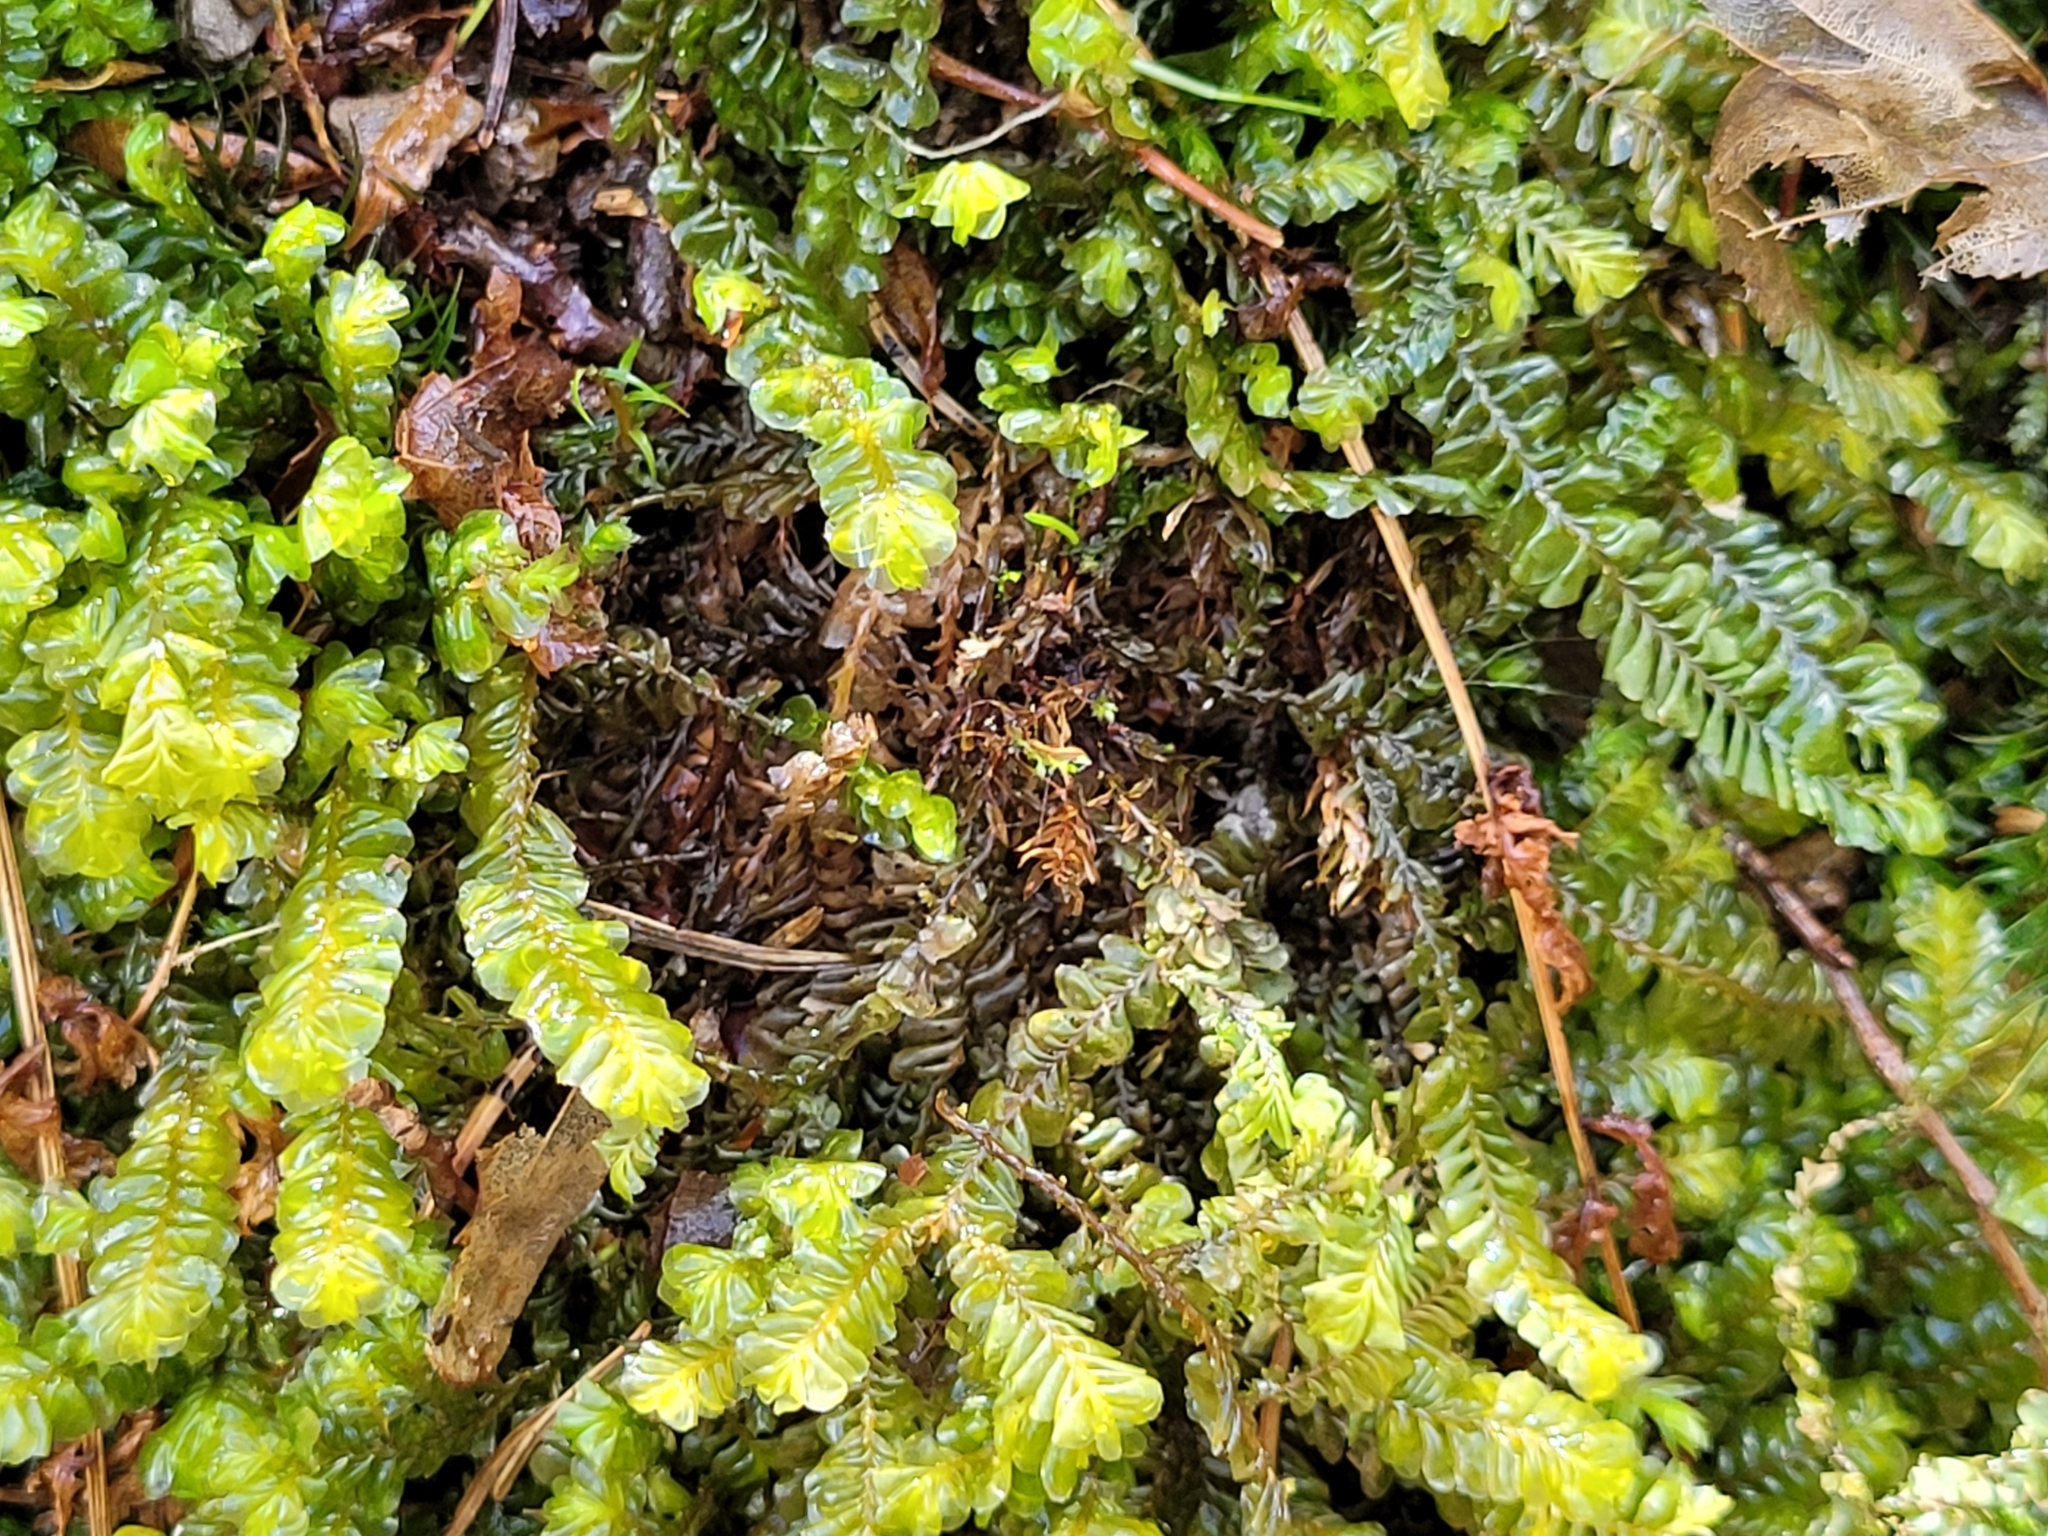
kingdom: Plantae
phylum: Marchantiophyta
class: Jungermanniopsida
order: Jungermanniales
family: Plagiochilaceae
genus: Plagiochila
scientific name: Plagiochila asplenioides
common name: Greater featherwort
